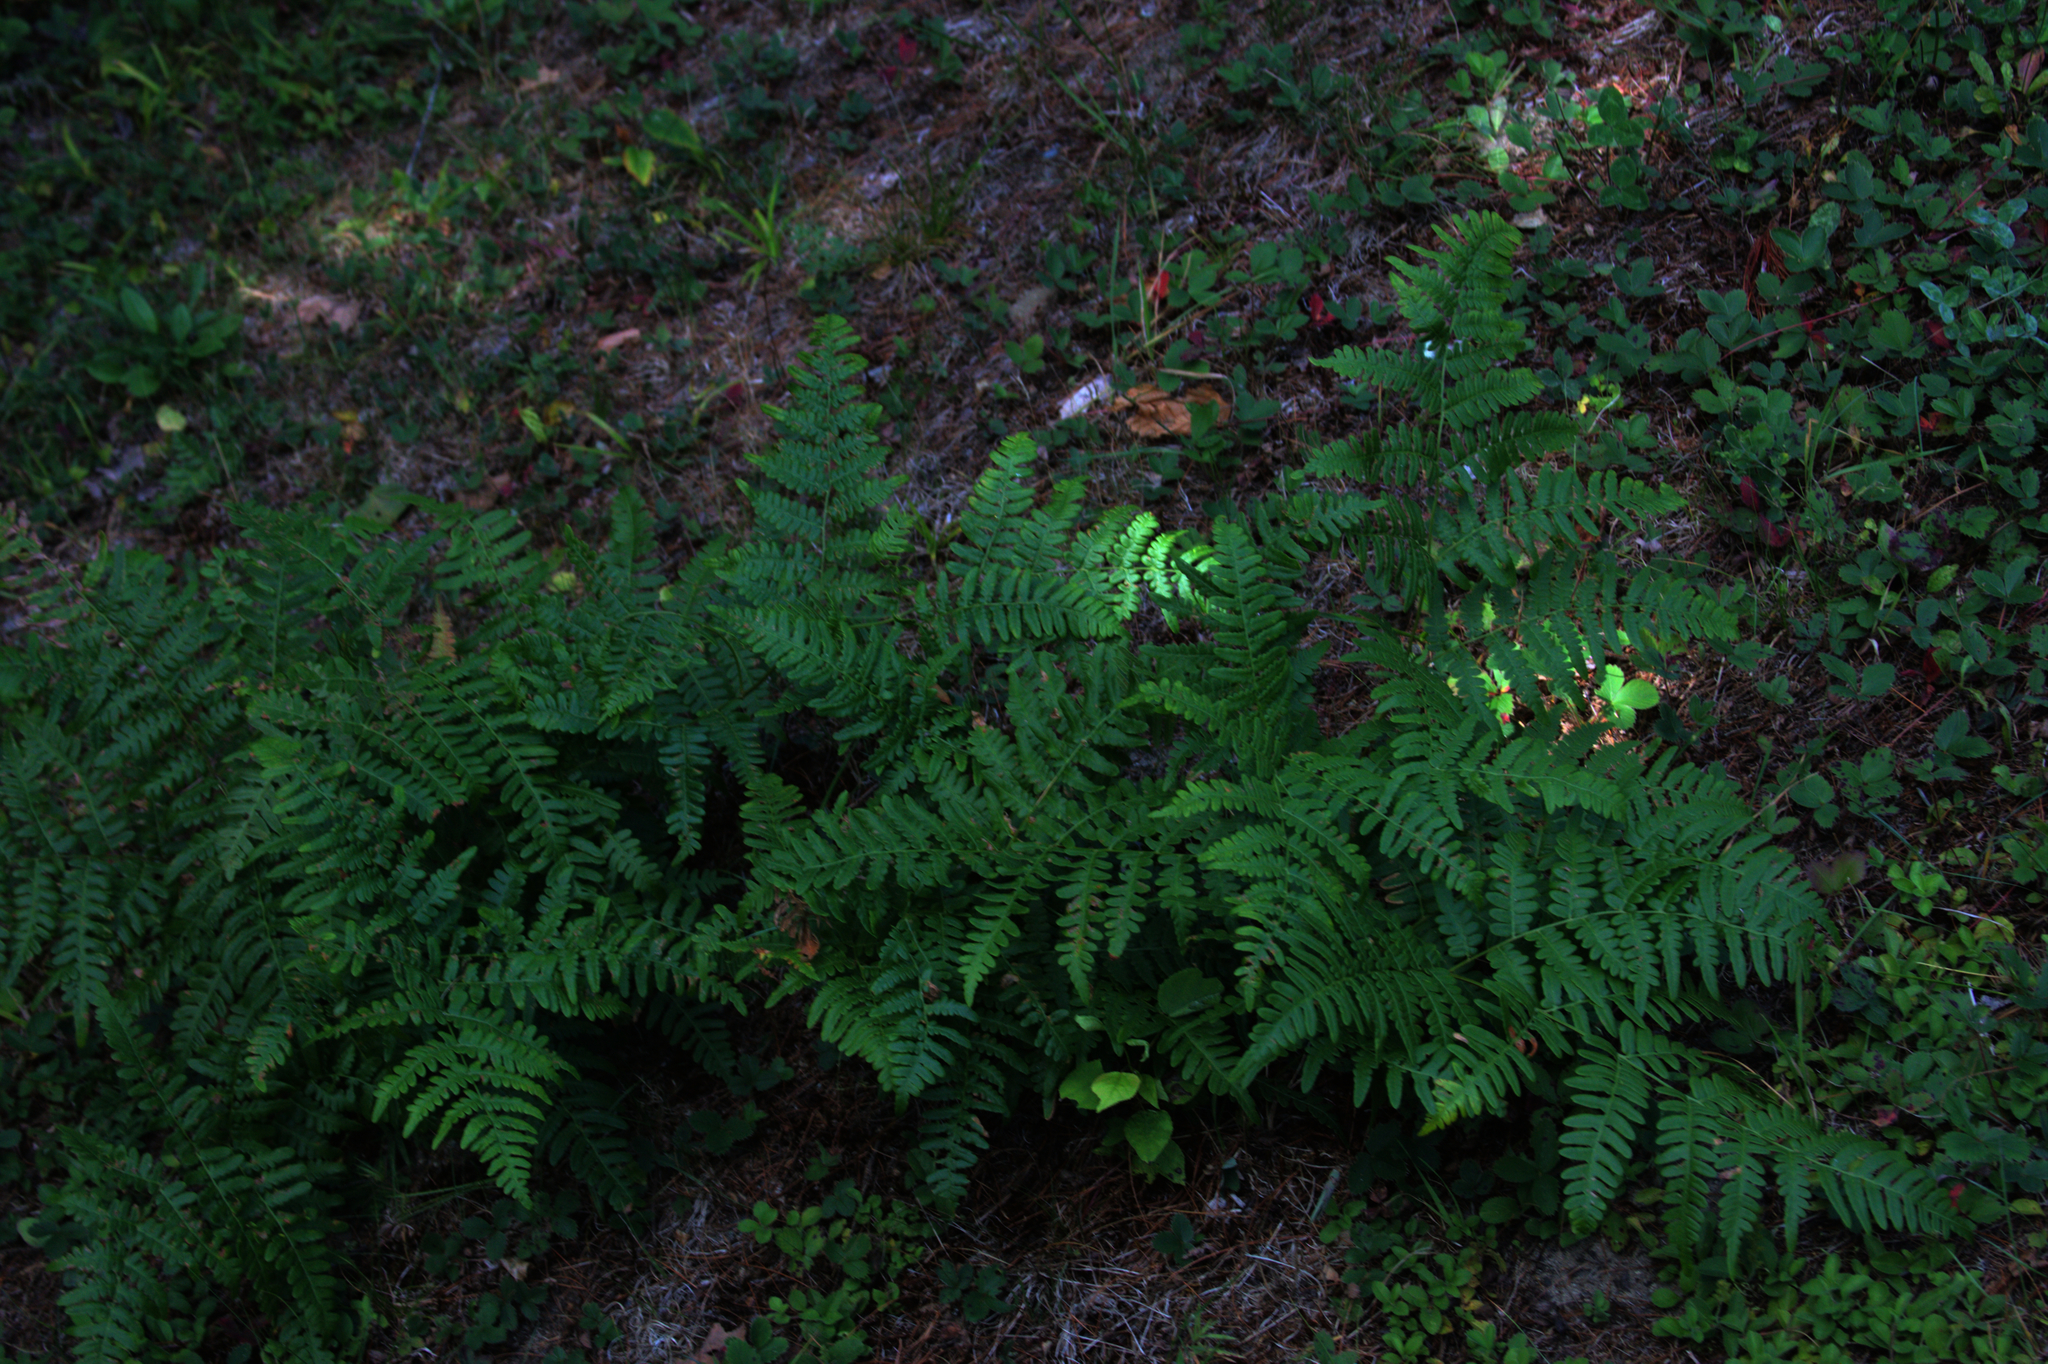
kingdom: Plantae
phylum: Tracheophyta
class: Polypodiopsida
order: Polypodiales
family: Dennstaedtiaceae
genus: Pteridium
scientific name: Pteridium aquilinum
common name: Bracken
